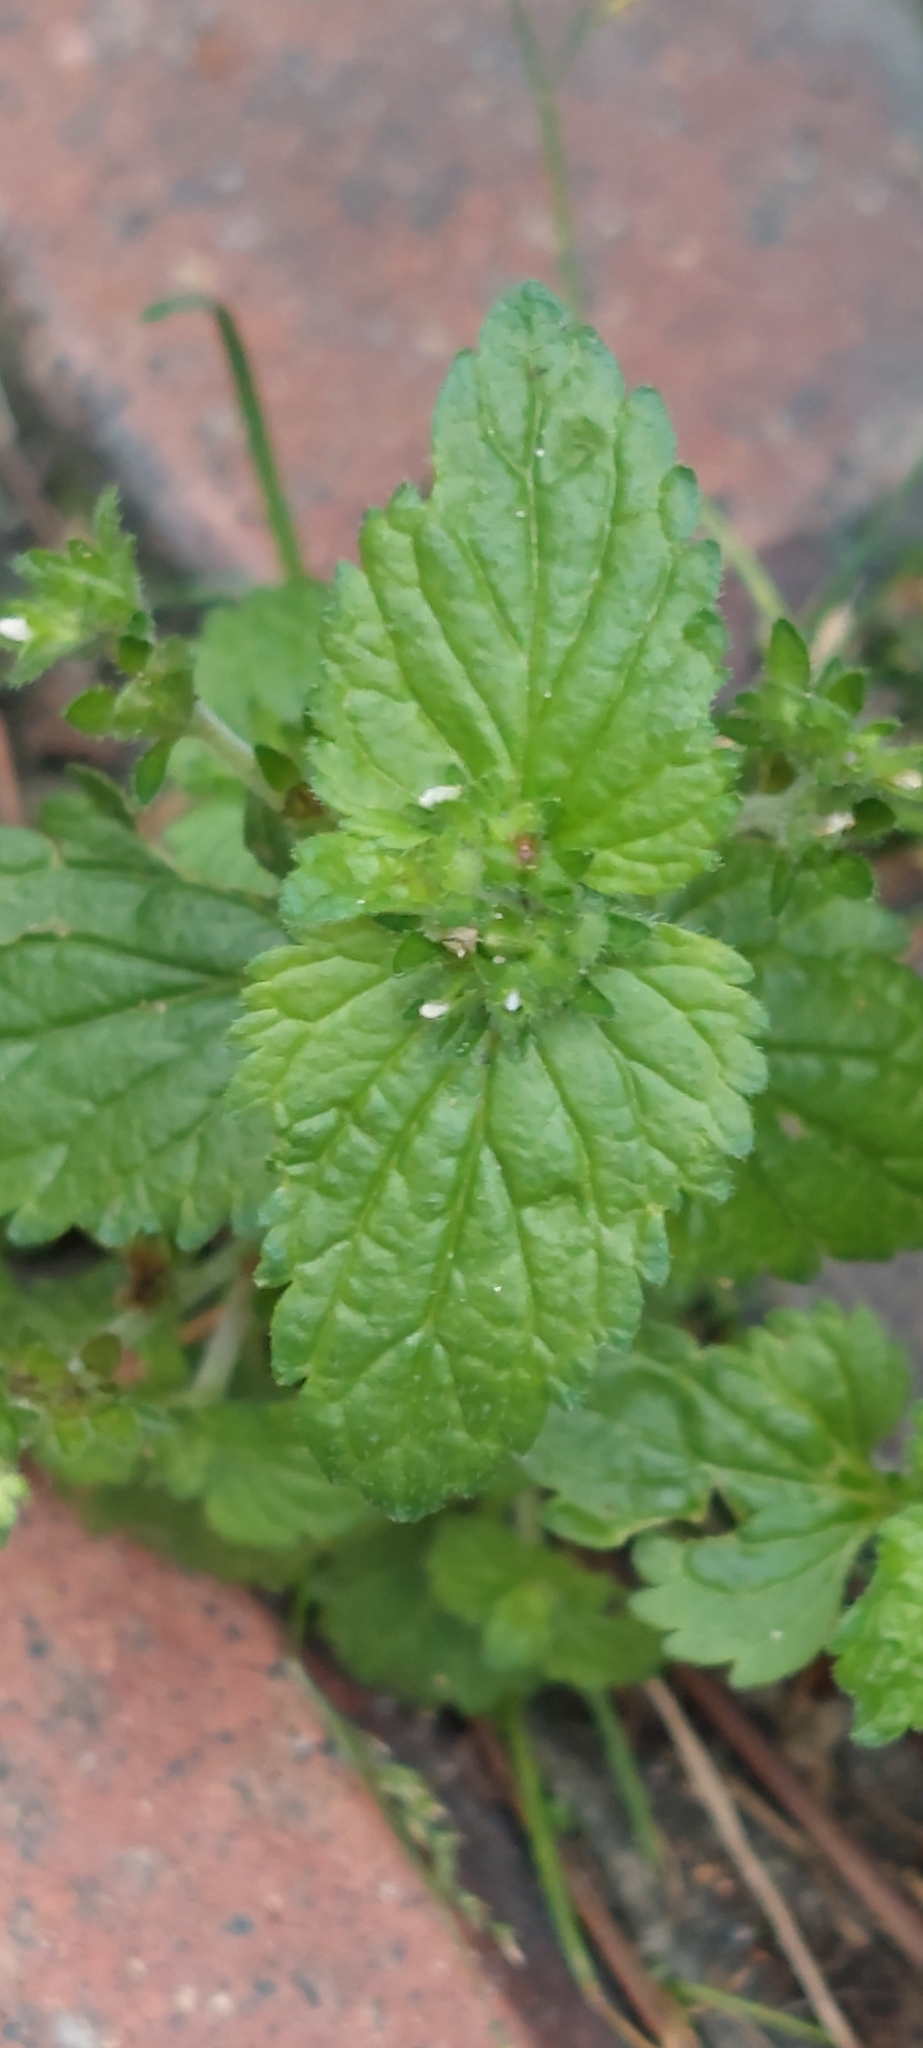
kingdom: Plantae
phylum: Tracheophyta
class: Magnoliopsida
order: Lamiales
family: Plantaginaceae
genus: Veronica
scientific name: Veronica javanica
